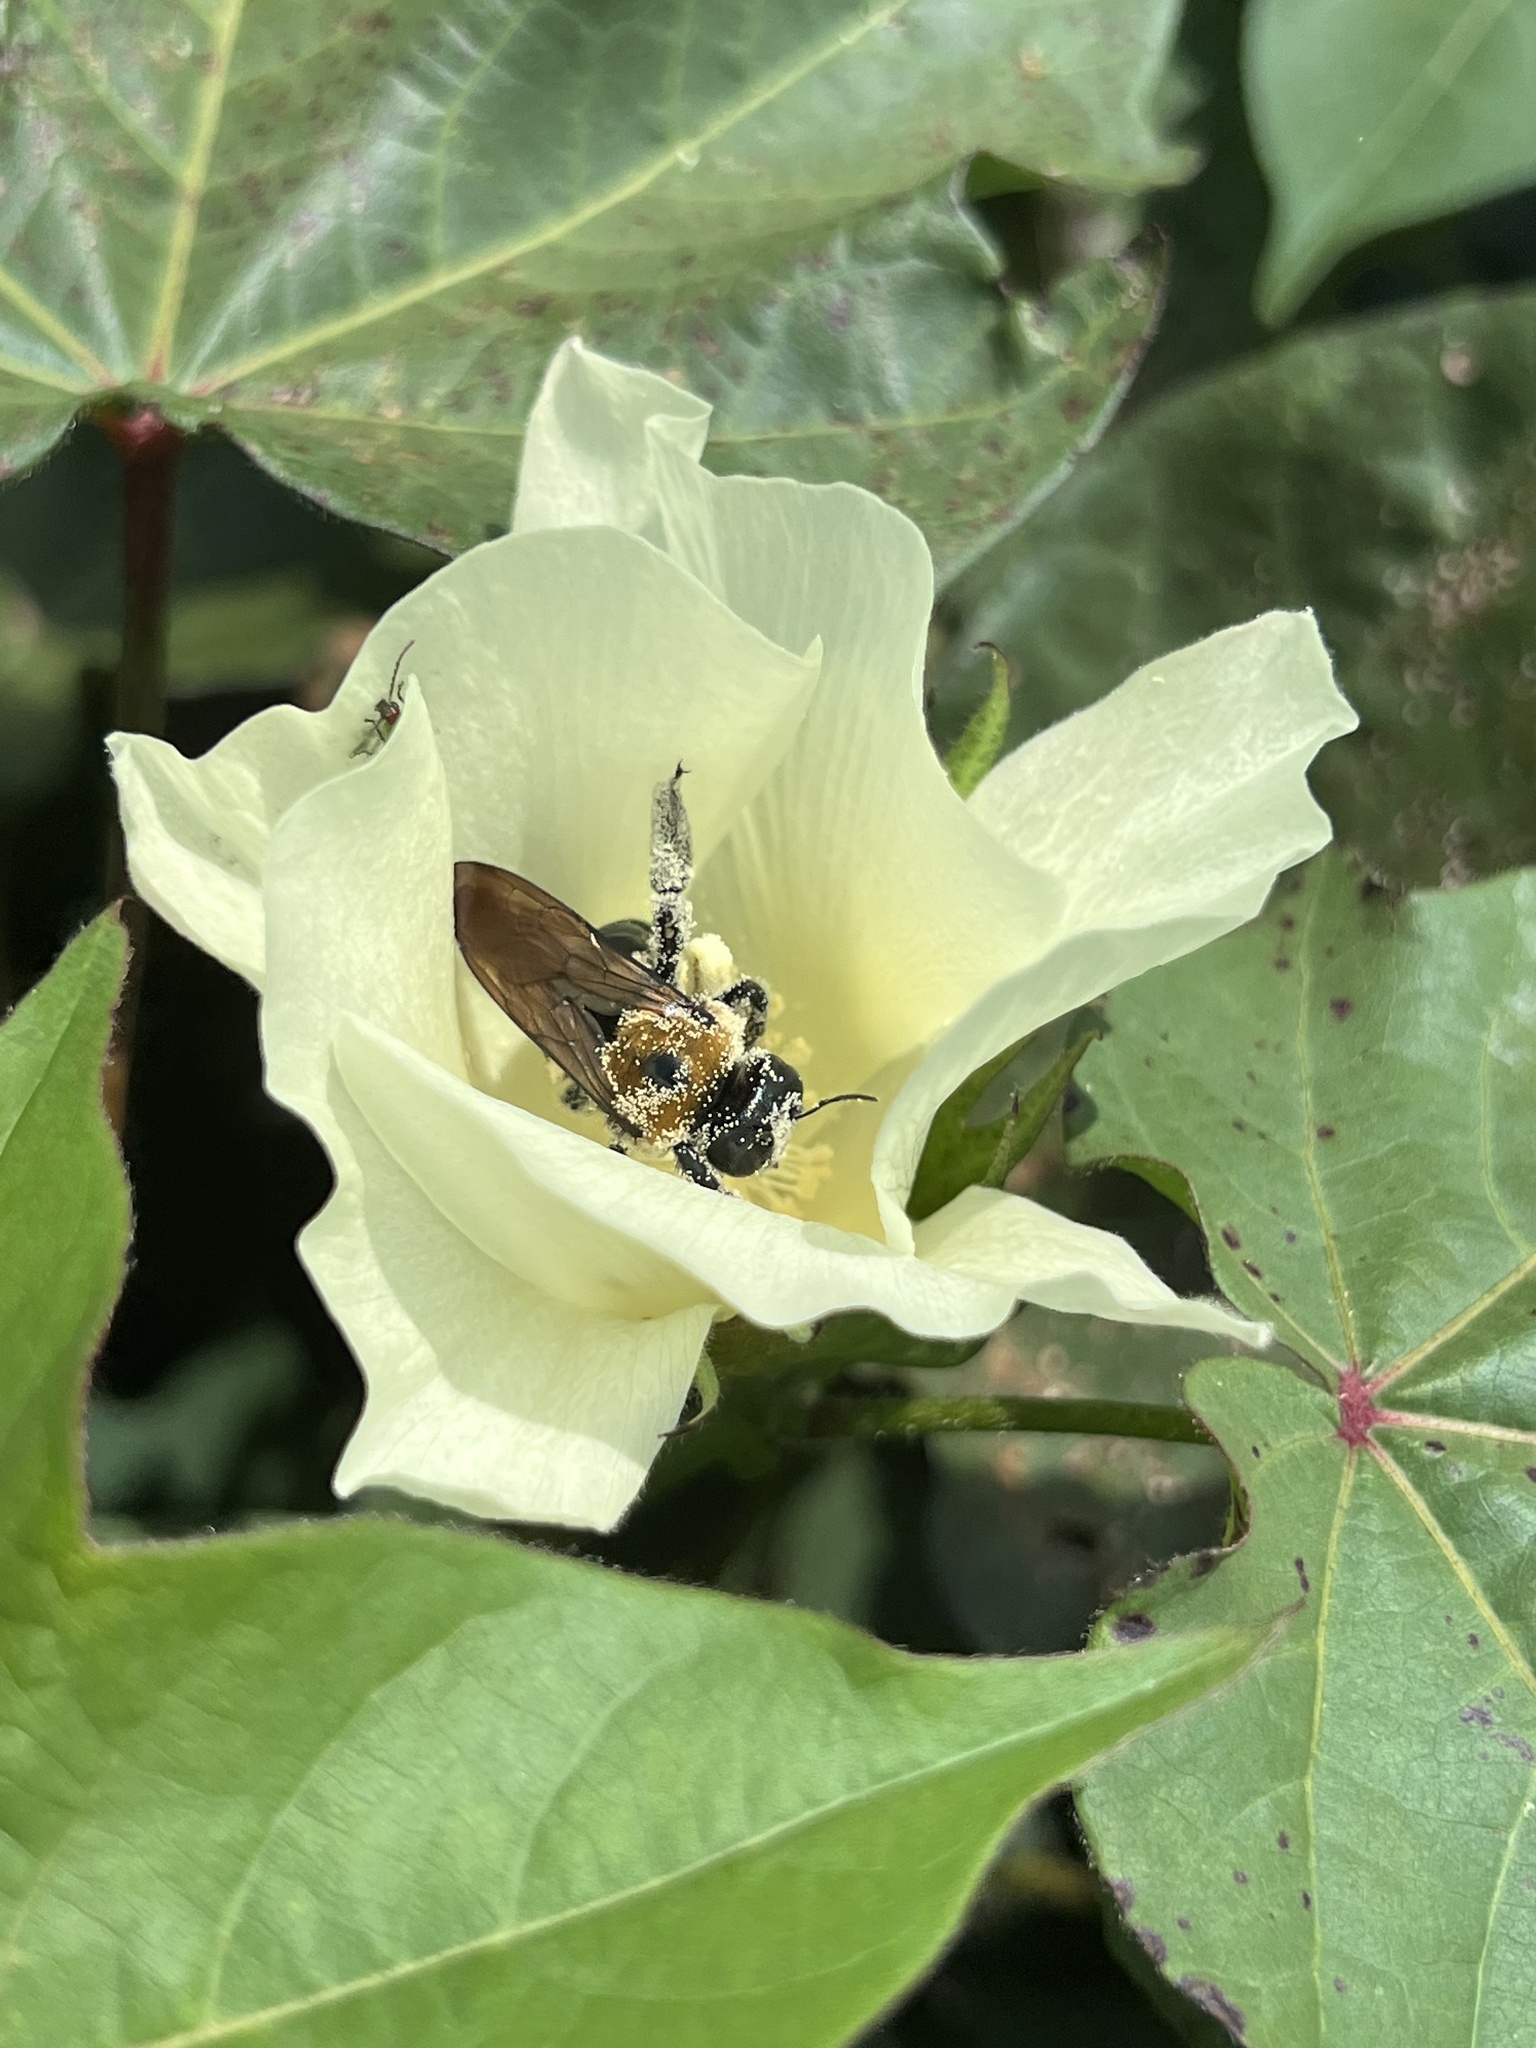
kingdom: Animalia
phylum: Arthropoda
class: Insecta
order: Hymenoptera
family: Apidae
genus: Xylocopa
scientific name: Xylocopa virginica
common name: Carpenter bee
